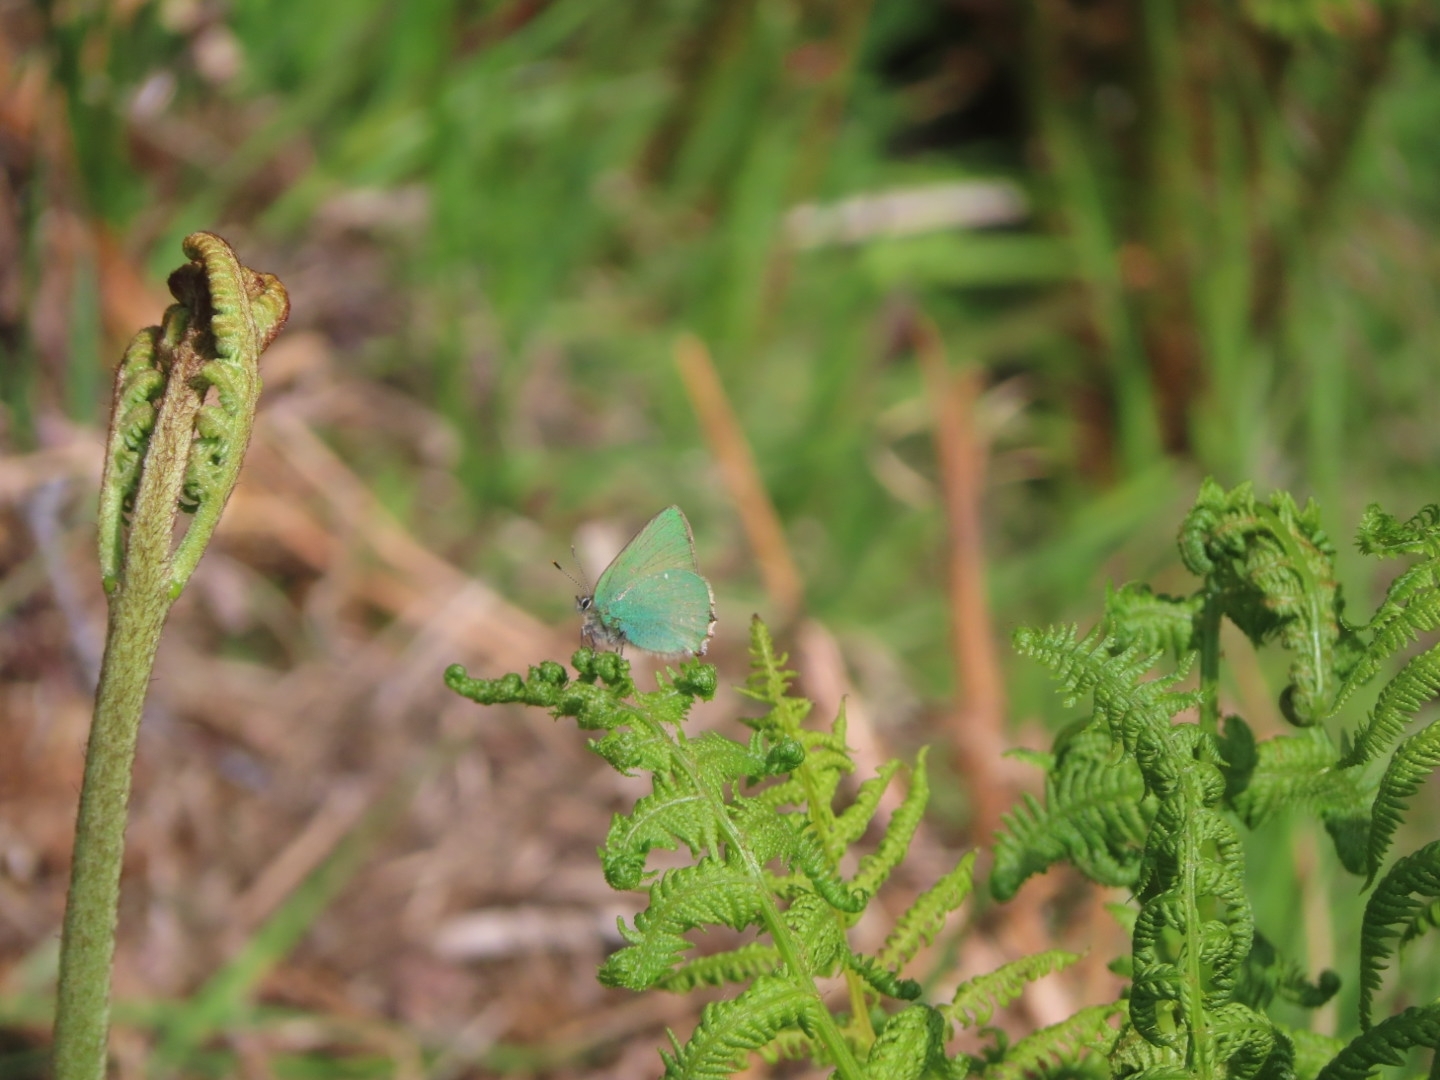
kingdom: Animalia
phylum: Arthropoda
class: Insecta
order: Lepidoptera
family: Lycaenidae
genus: Callophrys
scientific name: Callophrys rubi
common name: Green hairstreak
